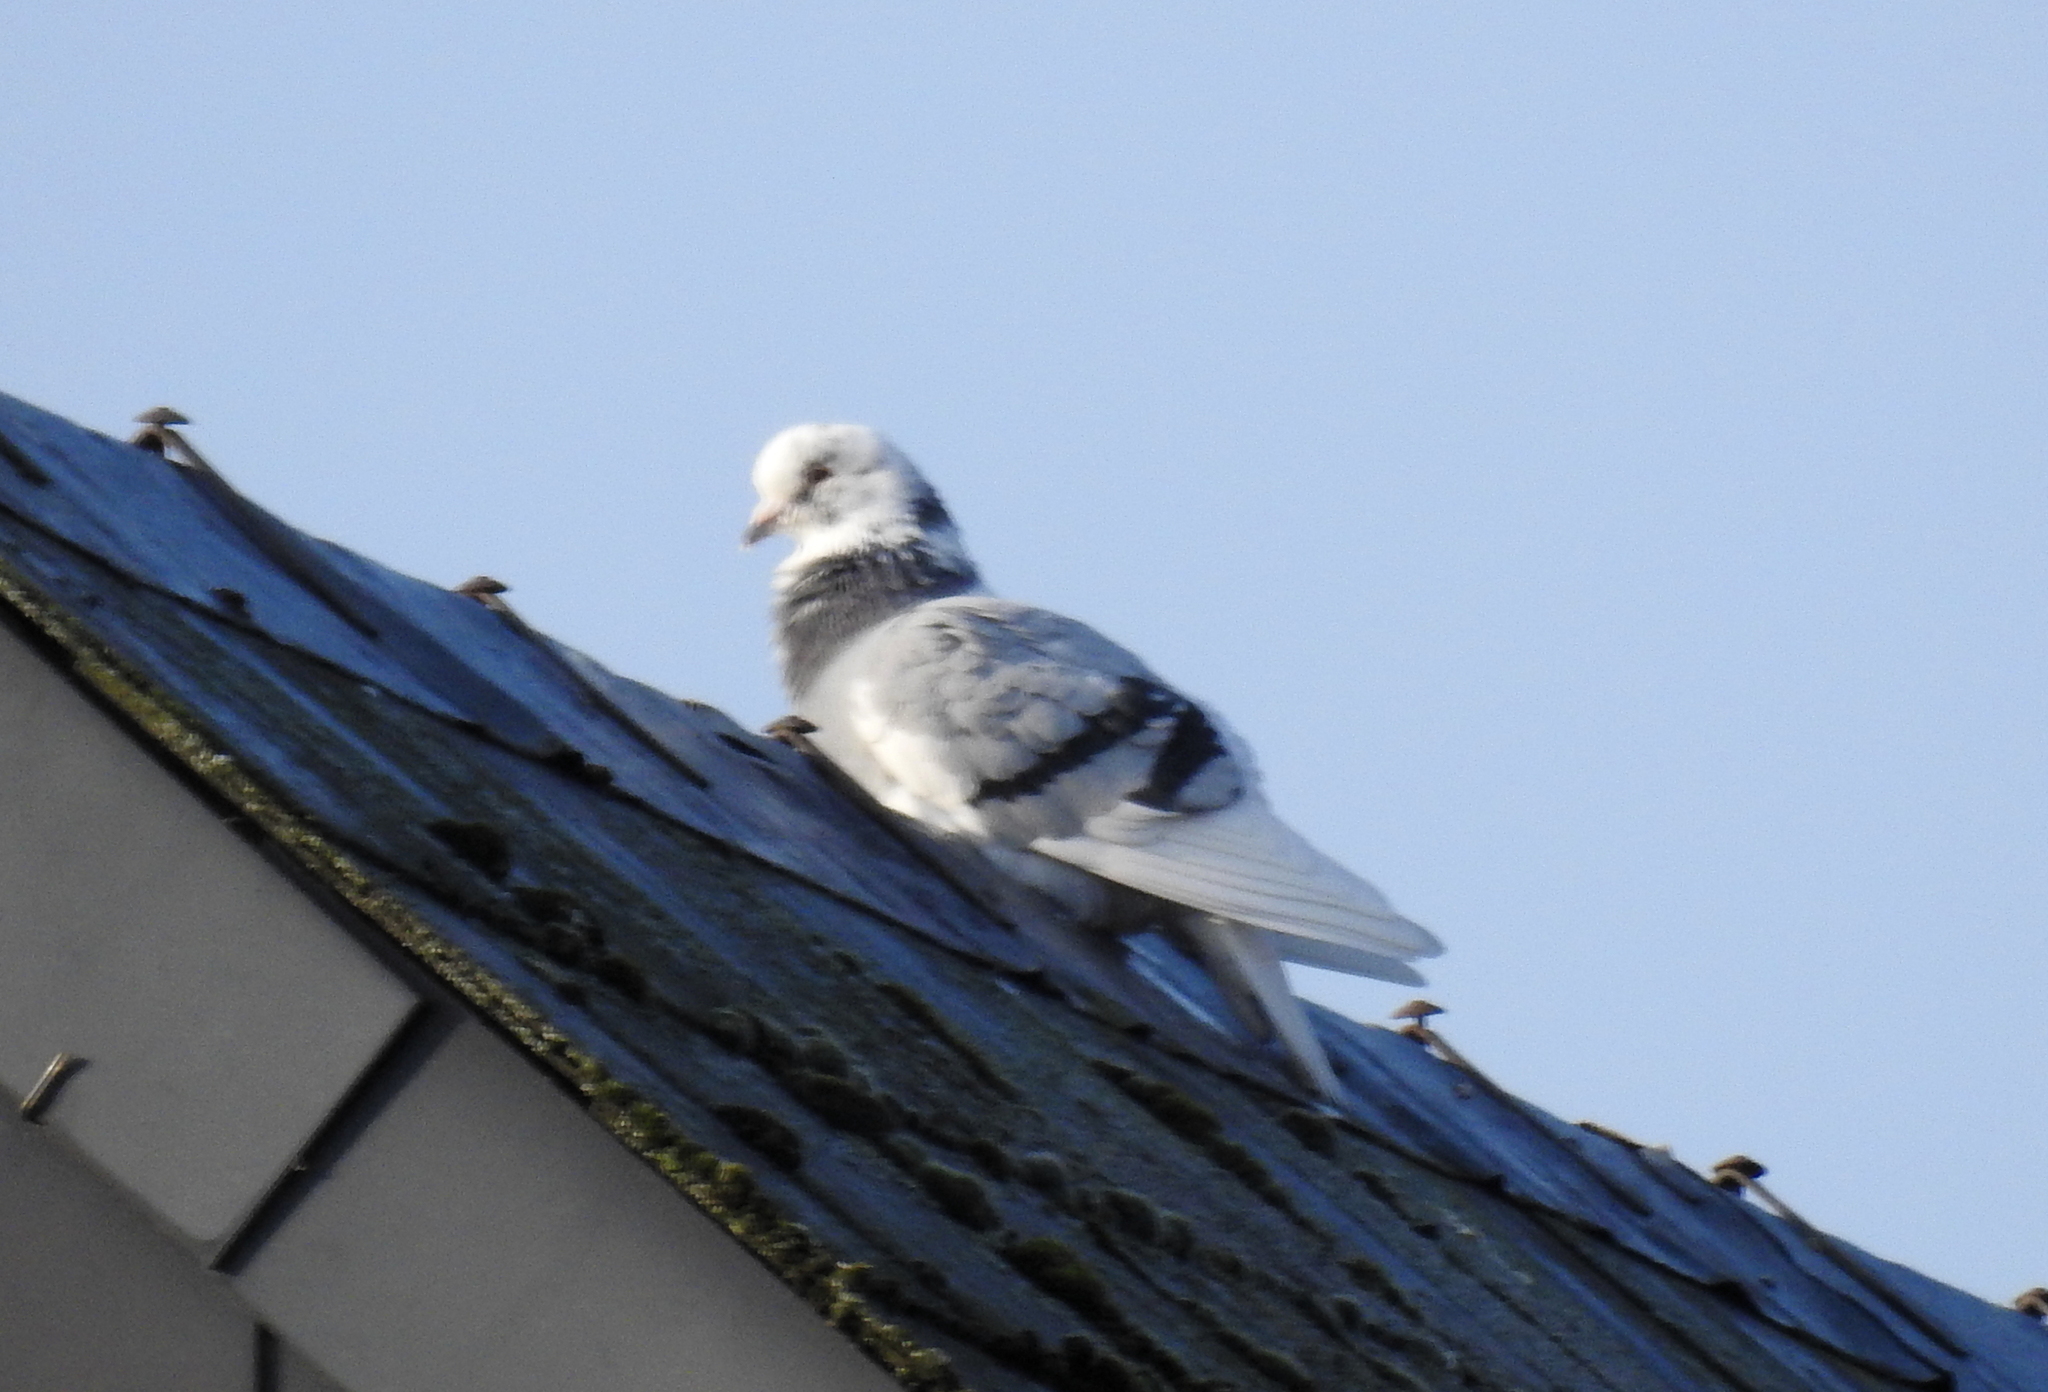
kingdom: Animalia
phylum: Chordata
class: Aves
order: Columbiformes
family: Columbidae
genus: Columba
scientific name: Columba livia
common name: Rock pigeon
